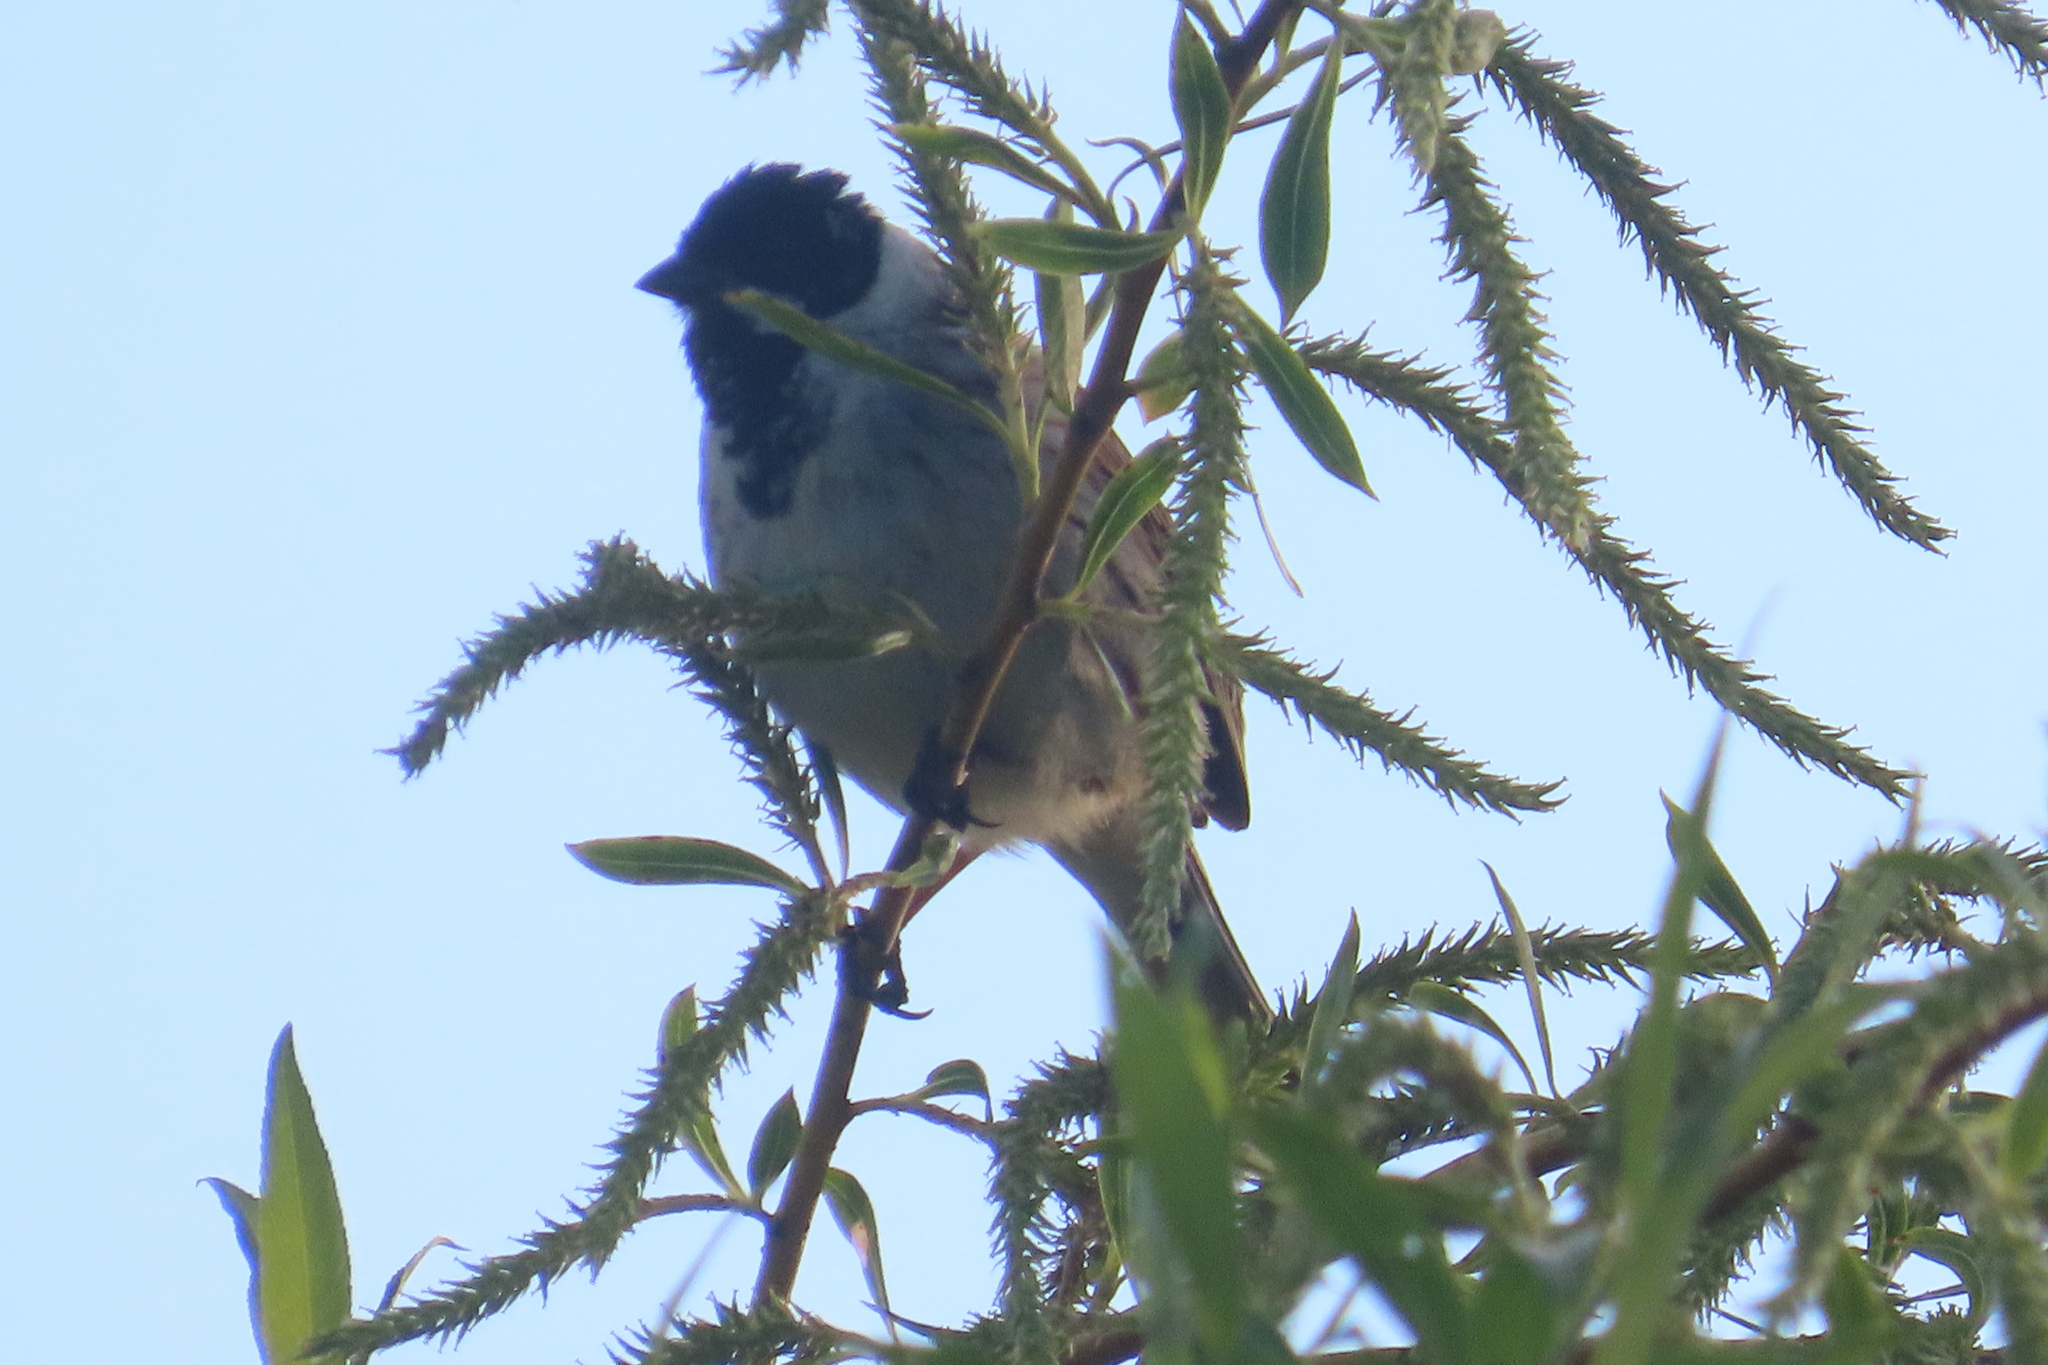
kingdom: Animalia
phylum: Chordata
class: Aves
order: Passeriformes
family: Emberizidae
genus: Emberiza
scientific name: Emberiza schoeniclus
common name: Reed bunting
